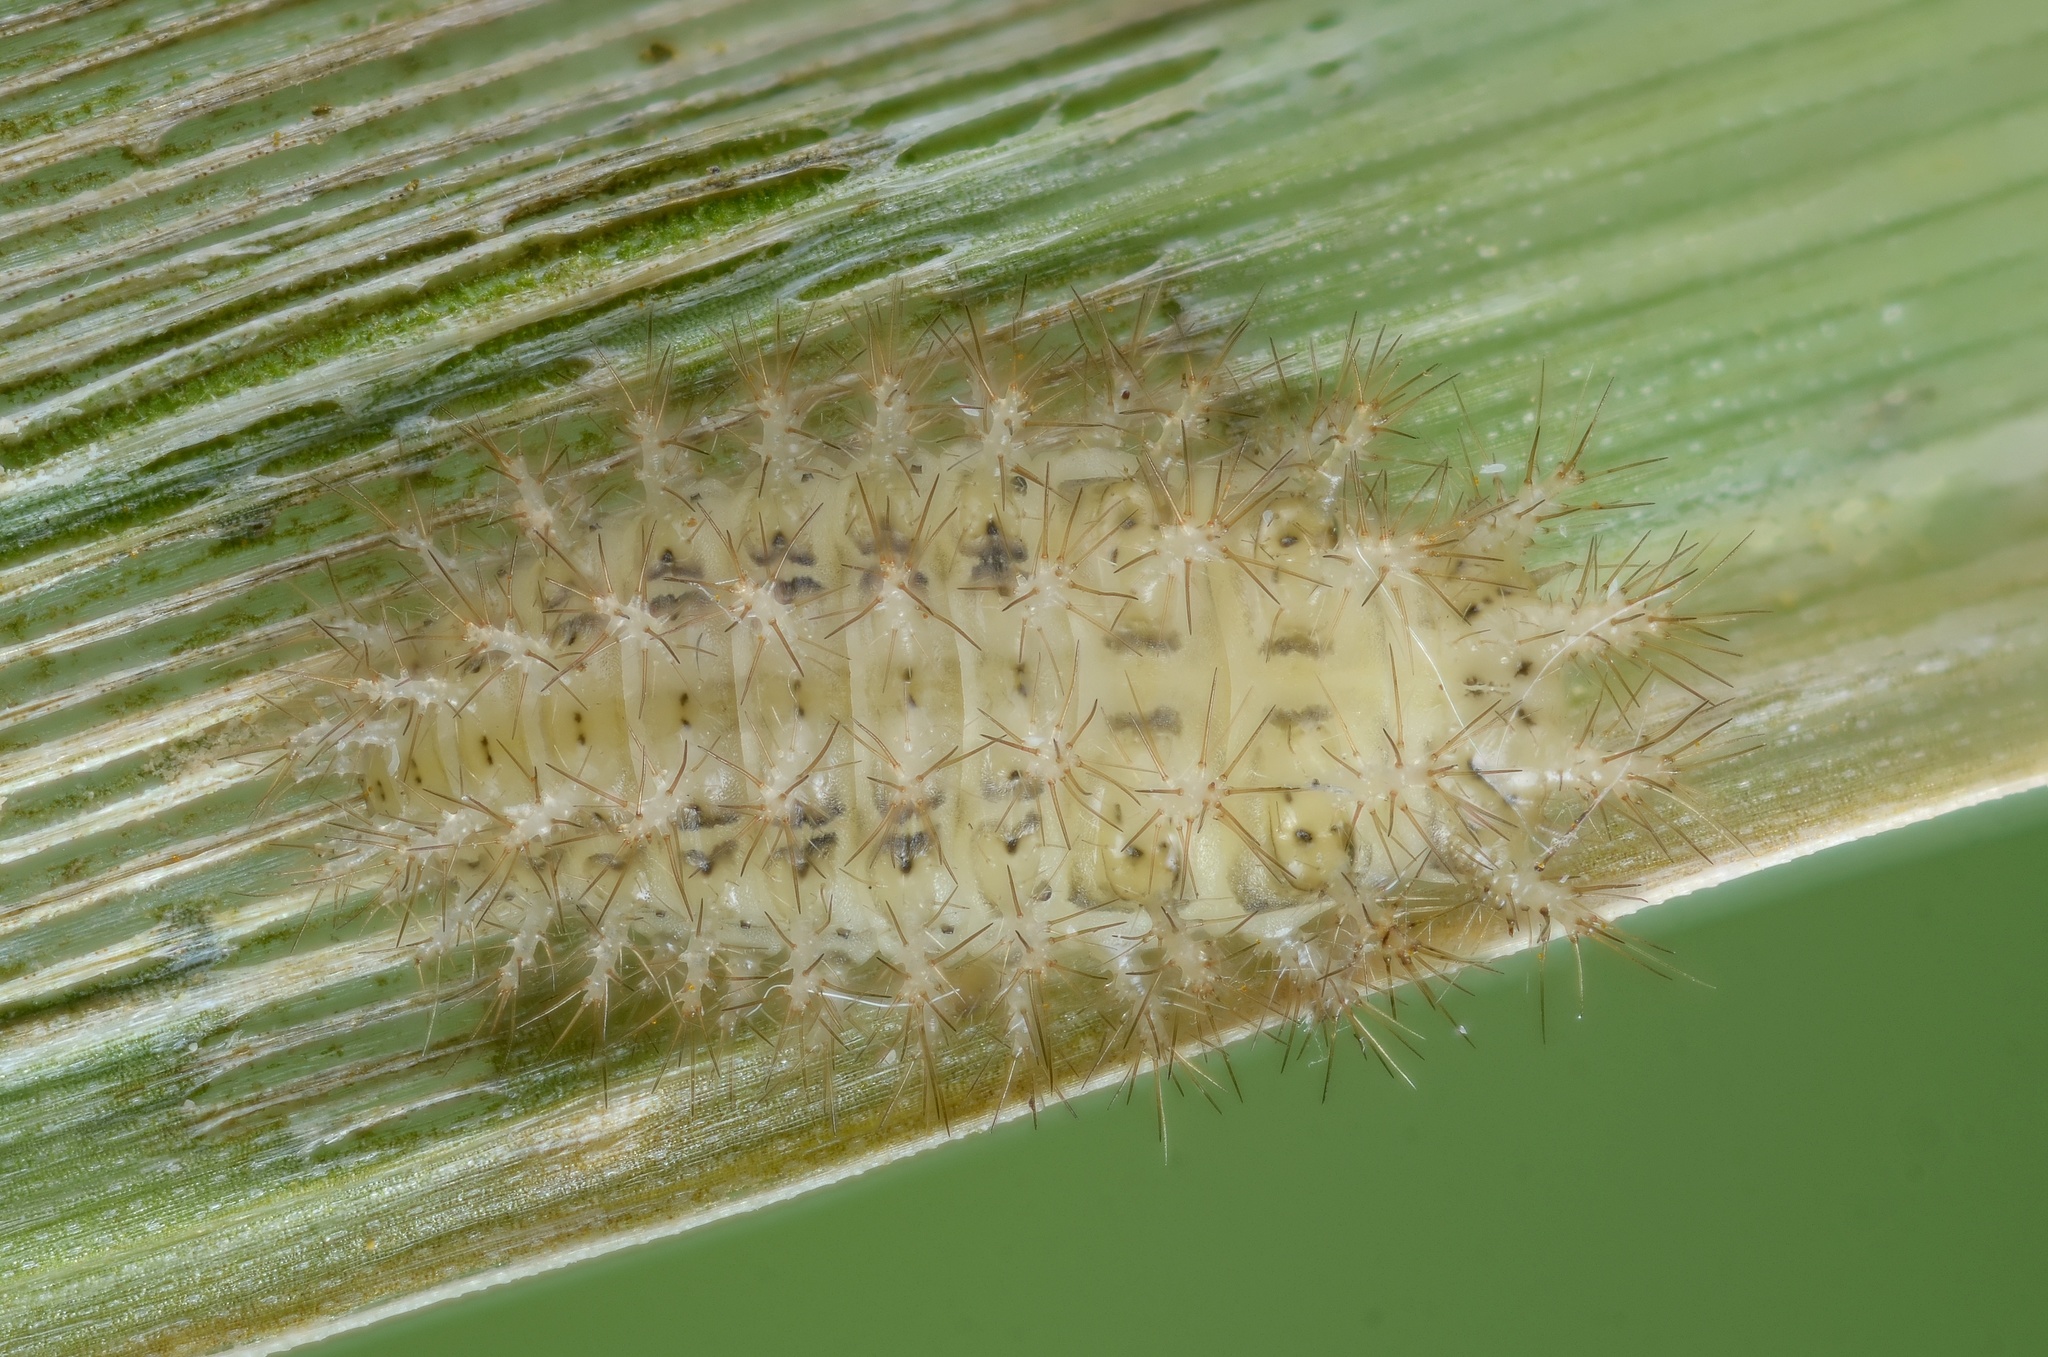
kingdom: Animalia
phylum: Arthropoda
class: Insecta
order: Coleoptera
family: Coccinellidae
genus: Cynegetis
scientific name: Cynegetis impunctata
